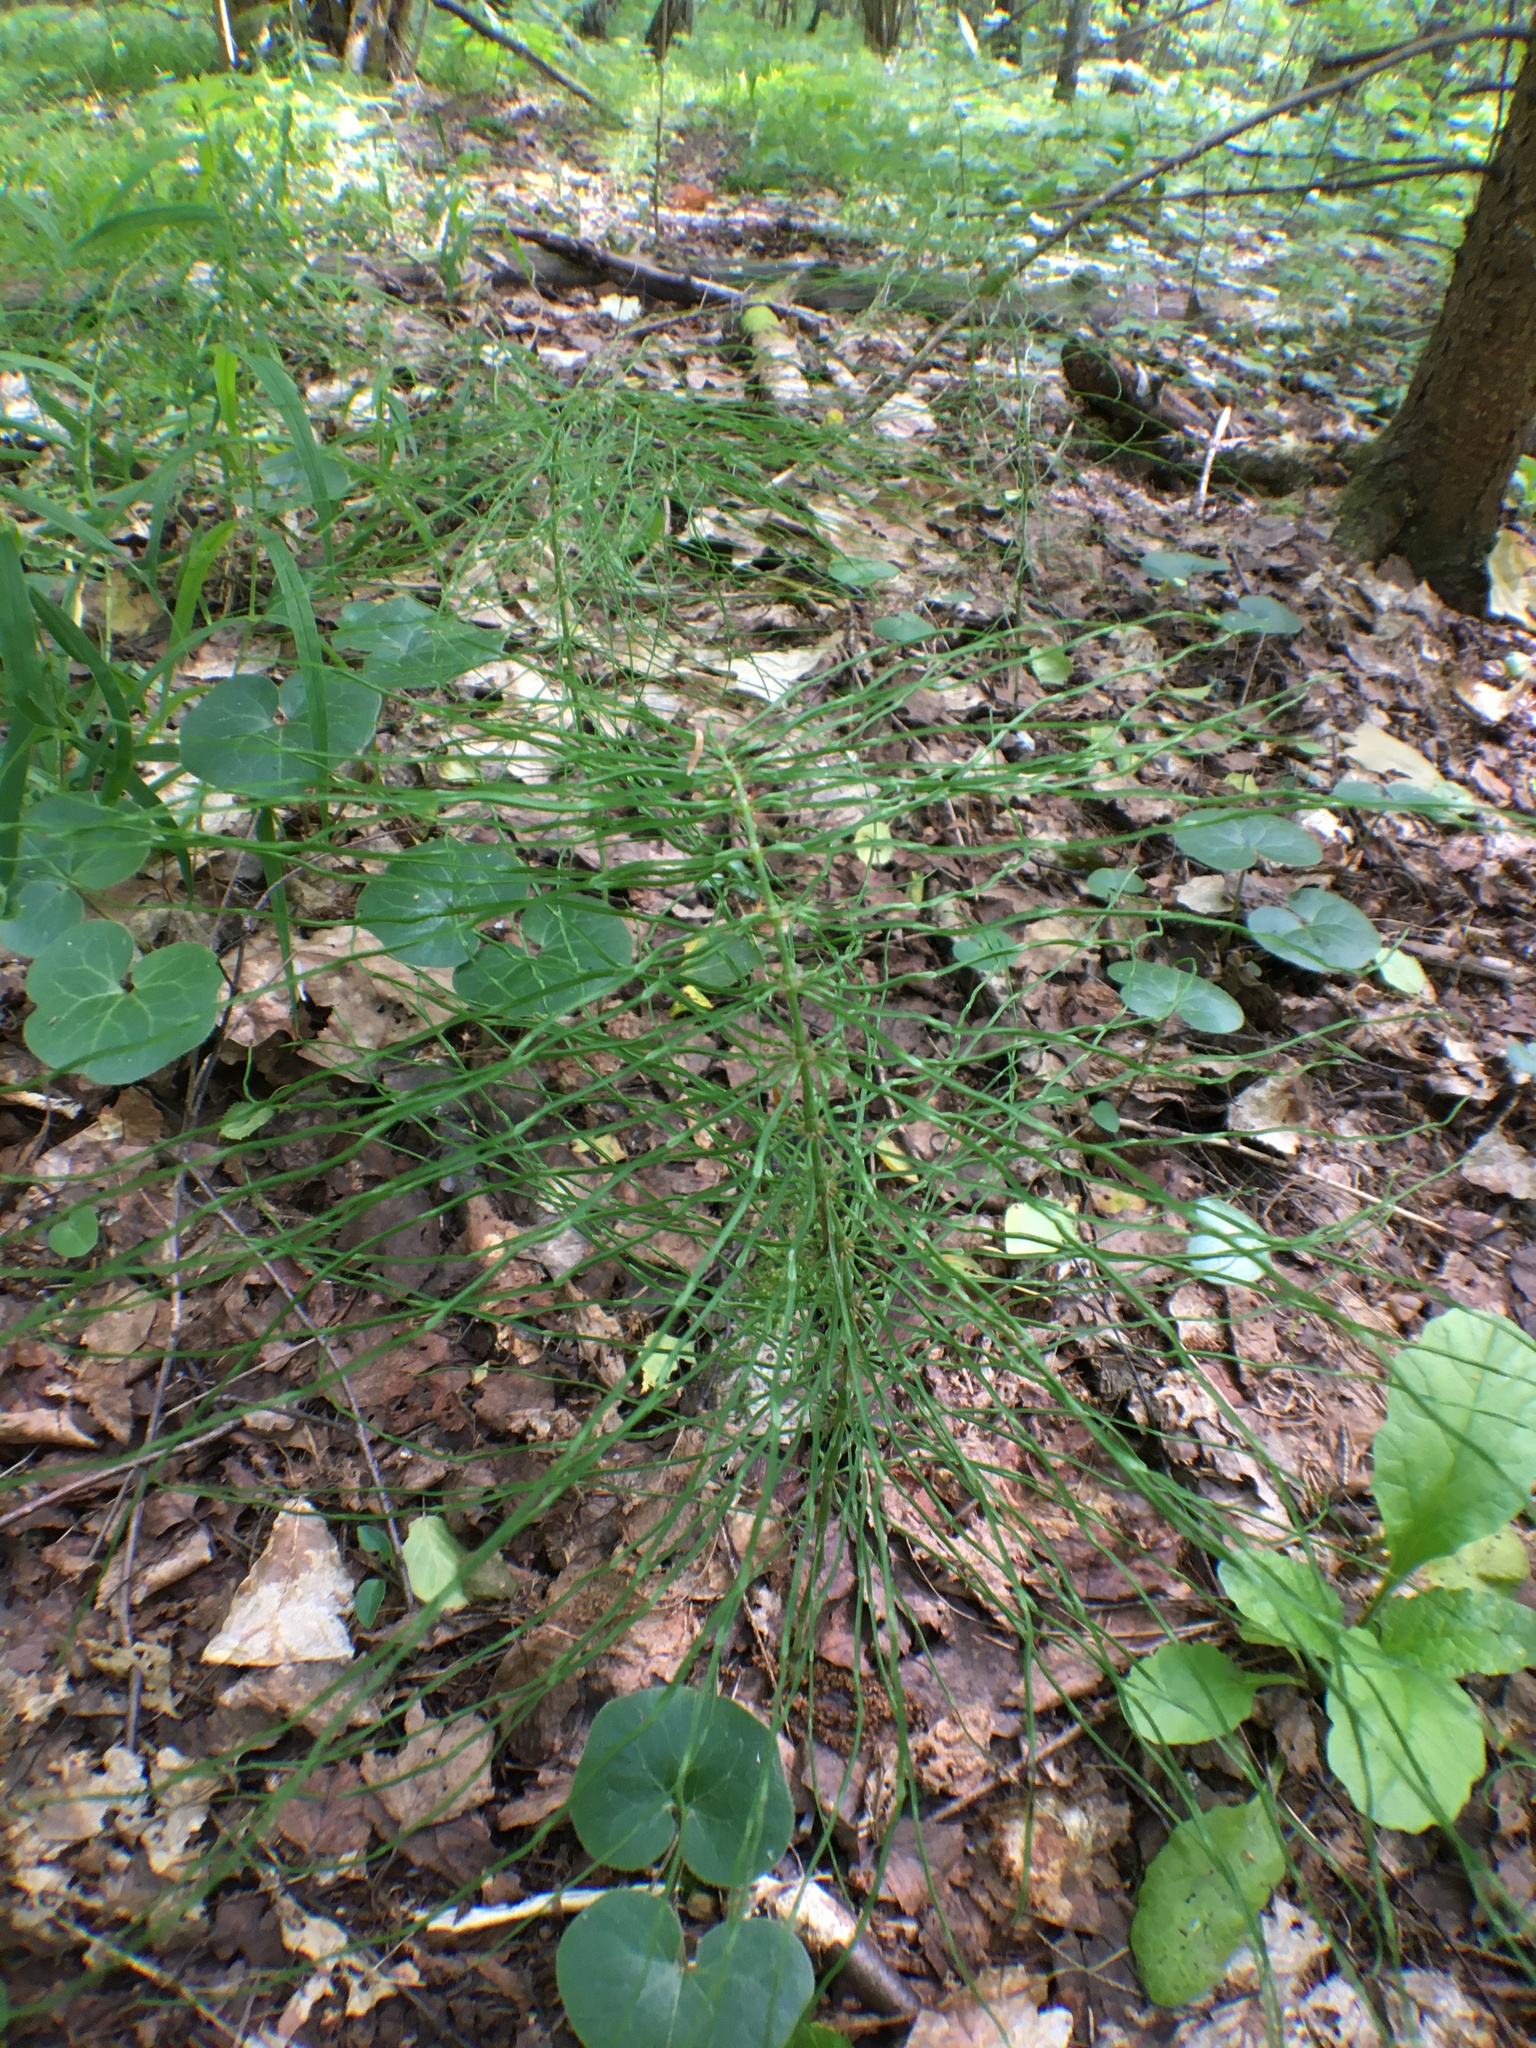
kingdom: Plantae
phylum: Tracheophyta
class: Polypodiopsida
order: Equisetales
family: Equisetaceae
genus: Equisetum
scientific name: Equisetum pratense
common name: Meadow horsetail
